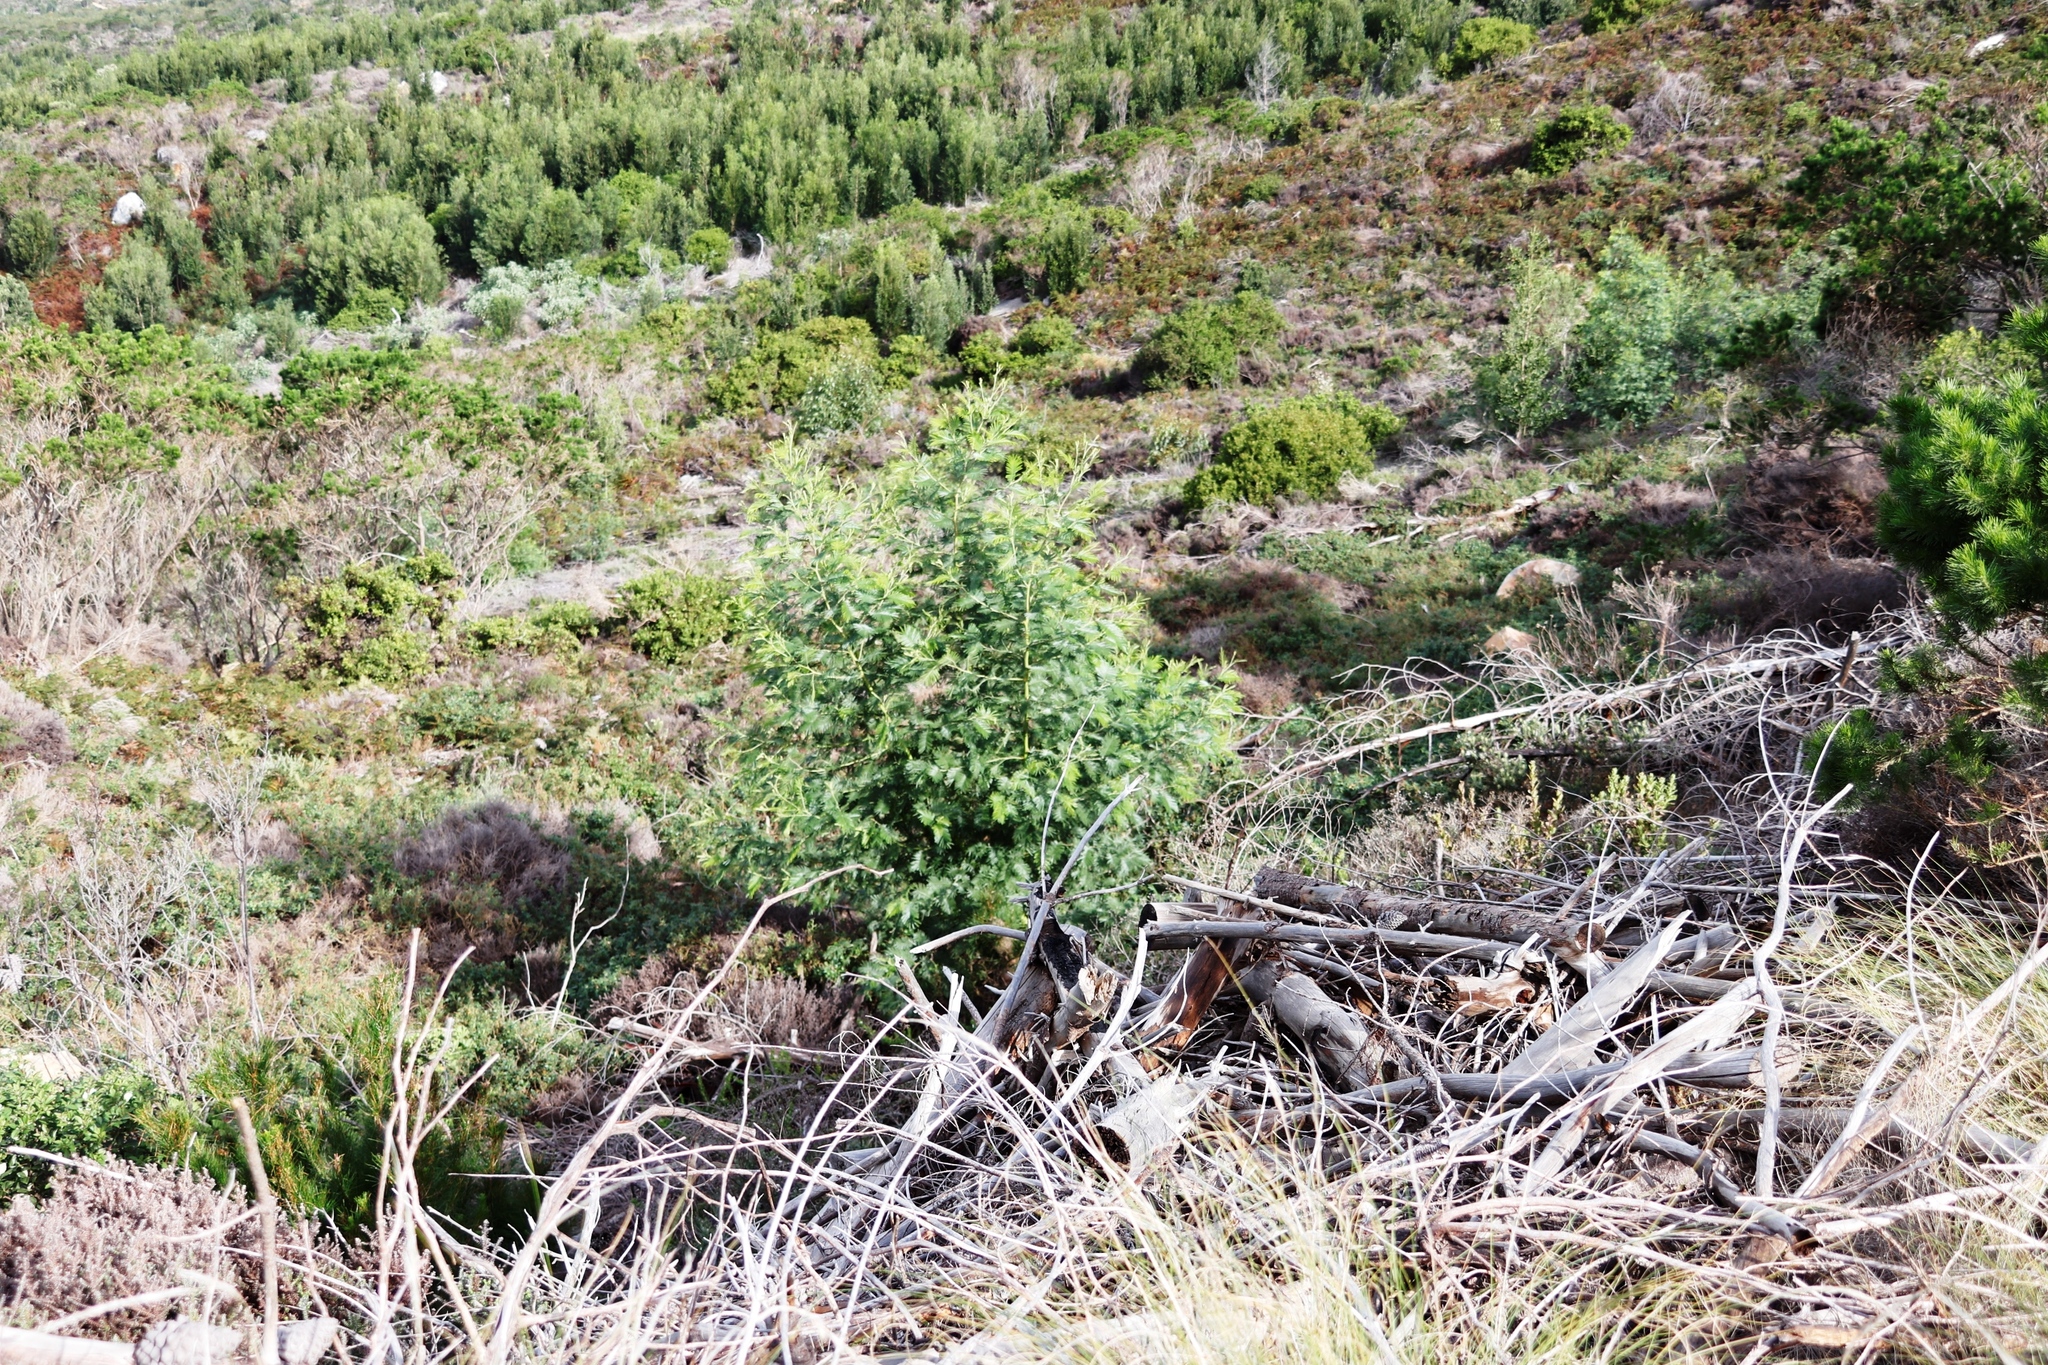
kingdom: Plantae
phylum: Tracheophyta
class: Magnoliopsida
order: Fabales
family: Fabaceae
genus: Acacia
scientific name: Acacia mearnsii
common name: Black wattle
